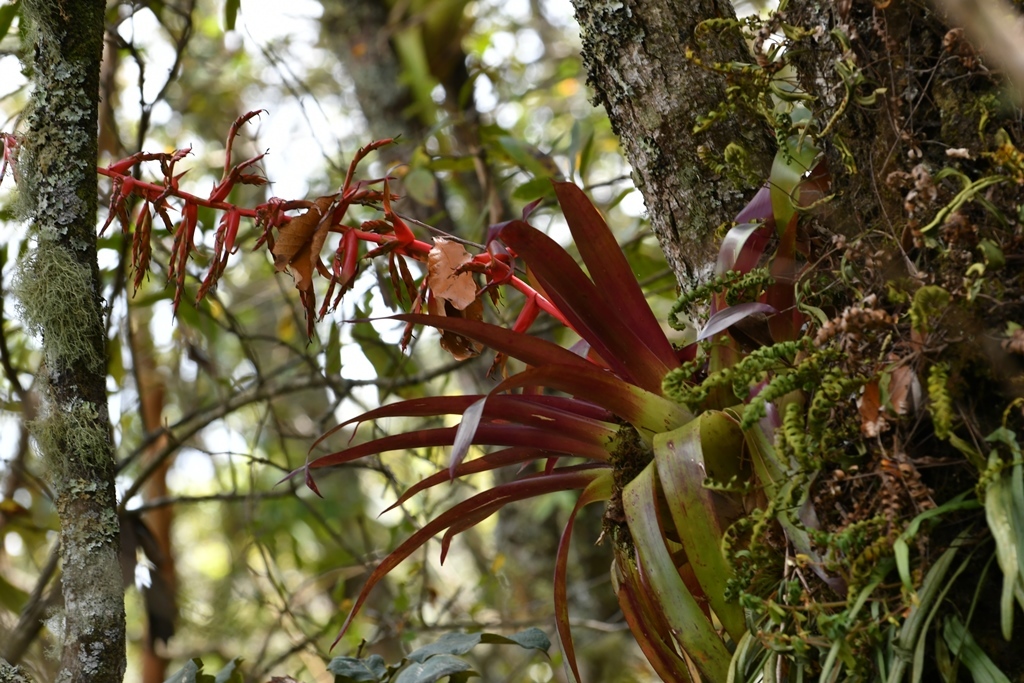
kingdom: Plantae
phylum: Tracheophyta
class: Liliopsida
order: Poales
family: Bromeliaceae
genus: Tillandsia
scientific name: Tillandsia guatemalensis
